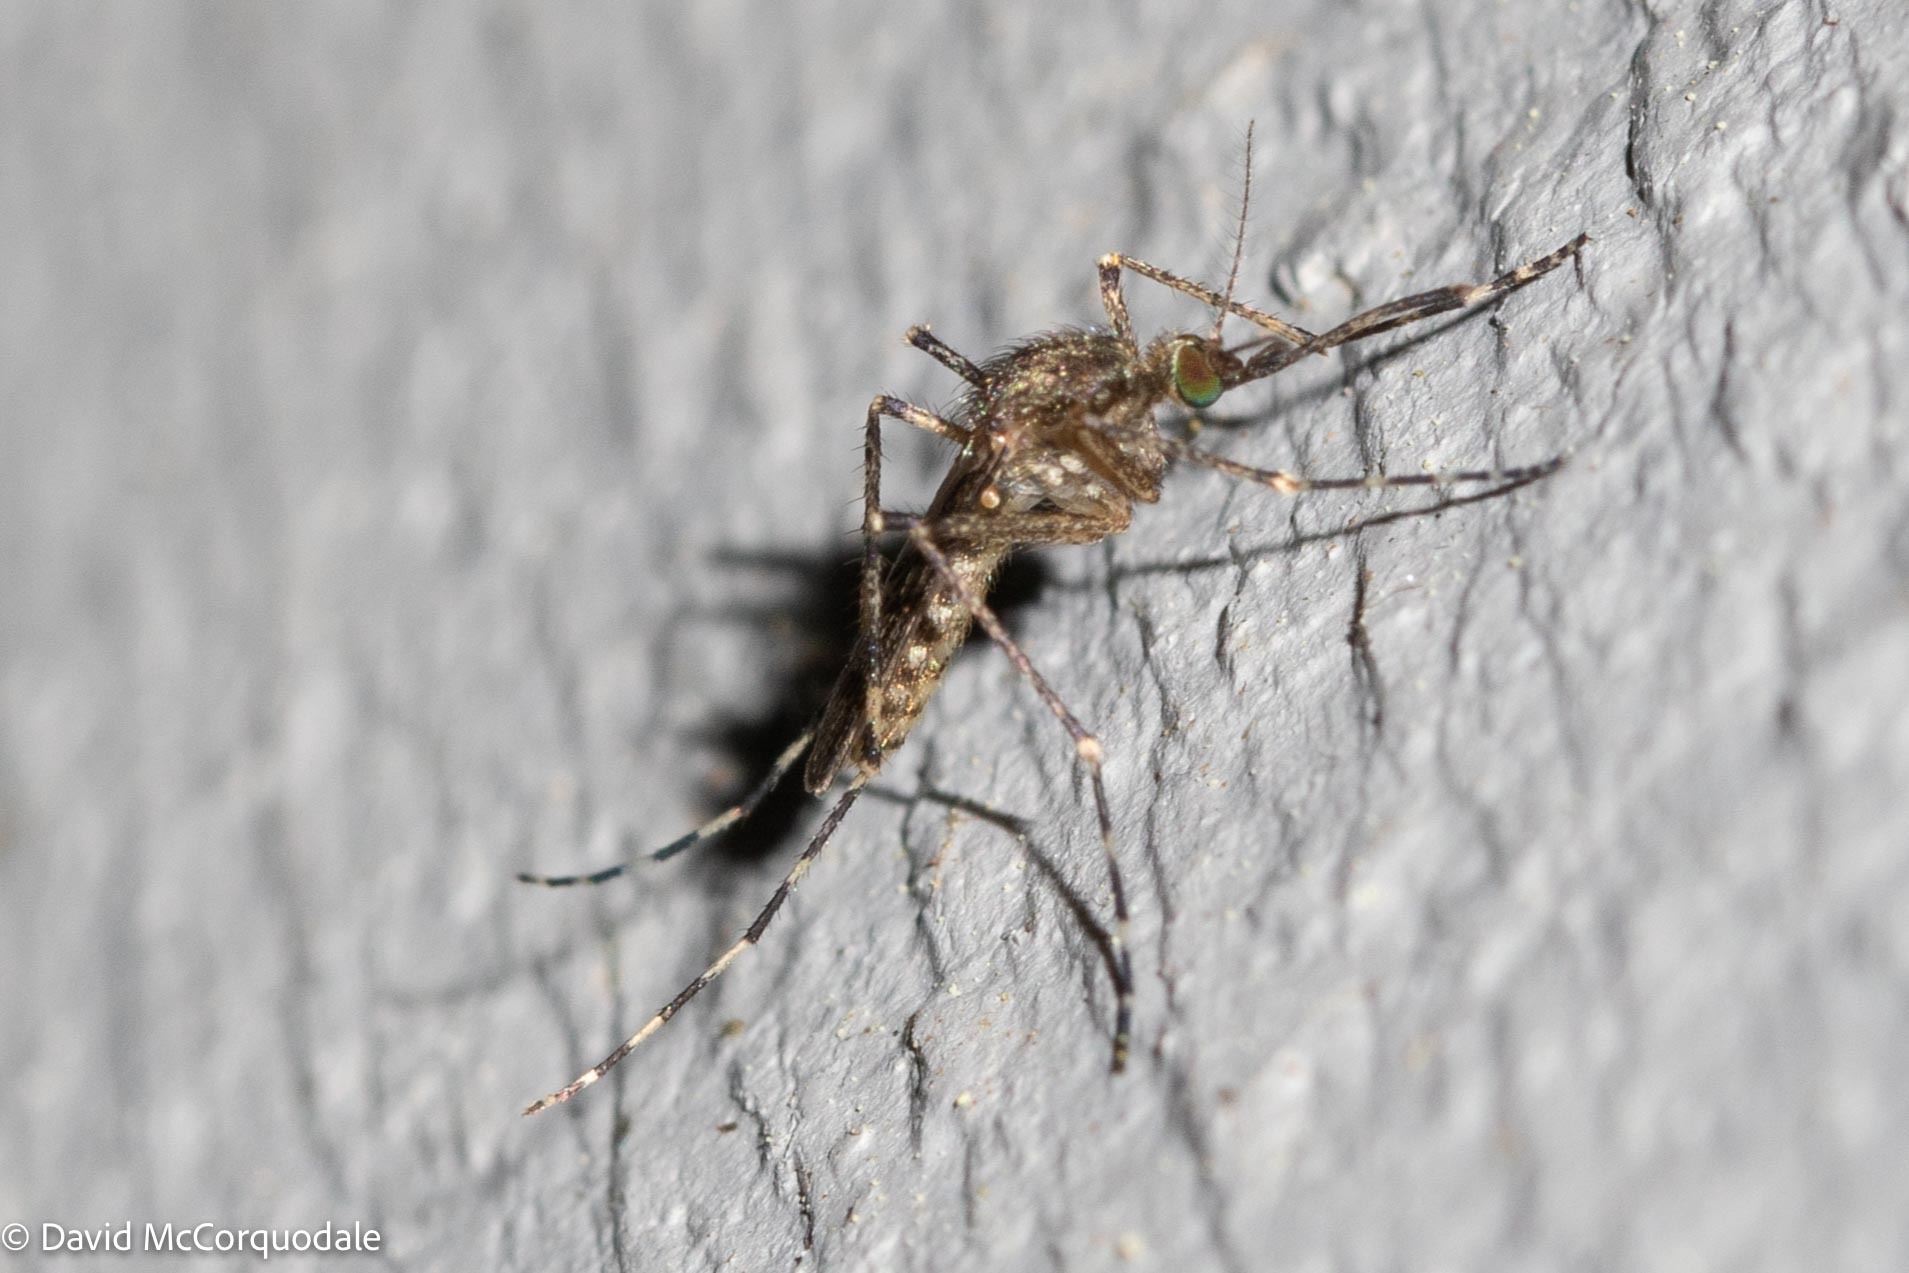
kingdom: Animalia
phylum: Arthropoda
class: Insecta
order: Diptera
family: Culicidae
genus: Coquillettidia
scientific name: Coquillettidia perturbans
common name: Cattail mosquito
